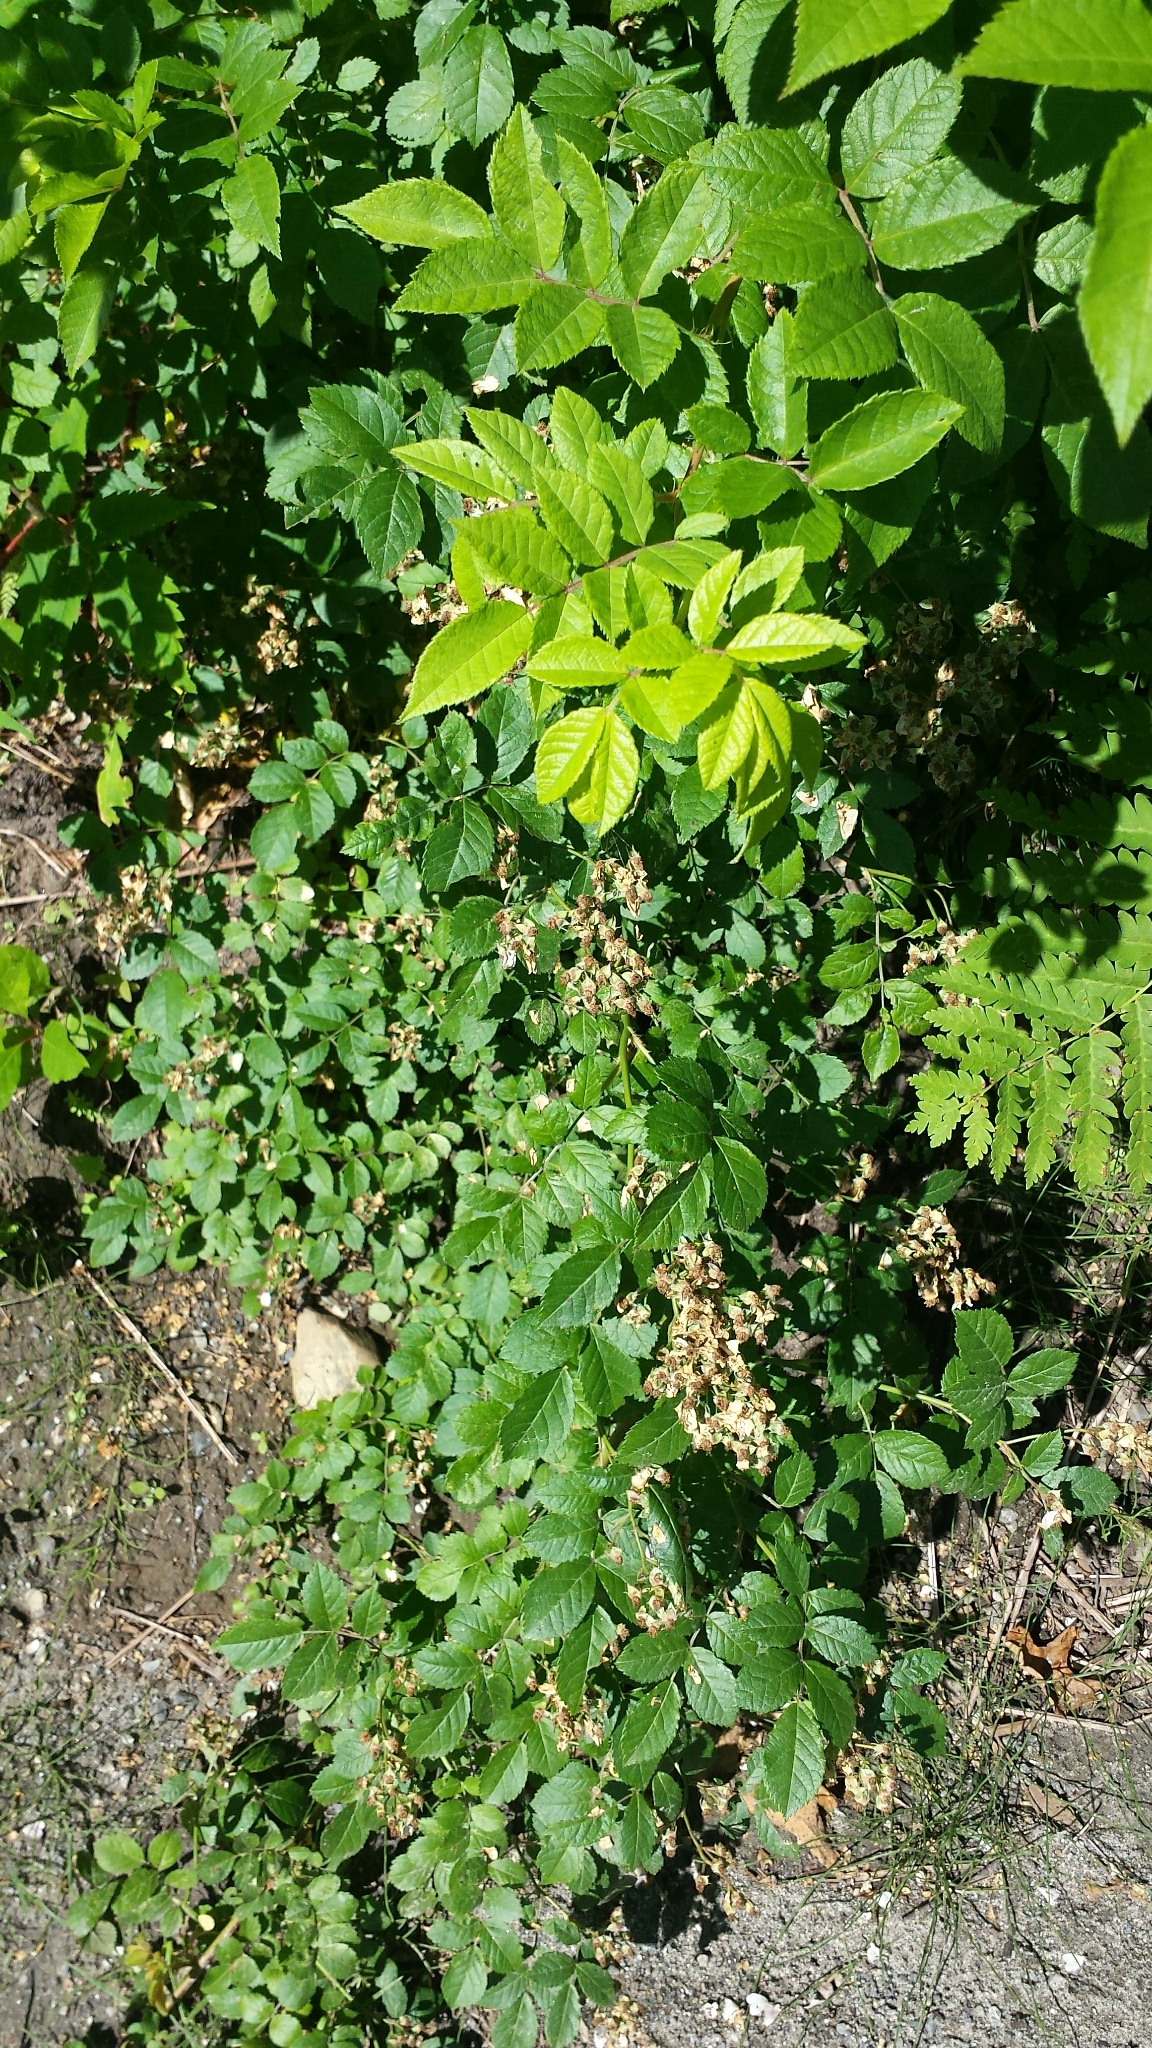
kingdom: Plantae
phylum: Tracheophyta
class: Magnoliopsida
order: Rosales
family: Rosaceae
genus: Rosa
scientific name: Rosa multiflora
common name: Multiflora rose
